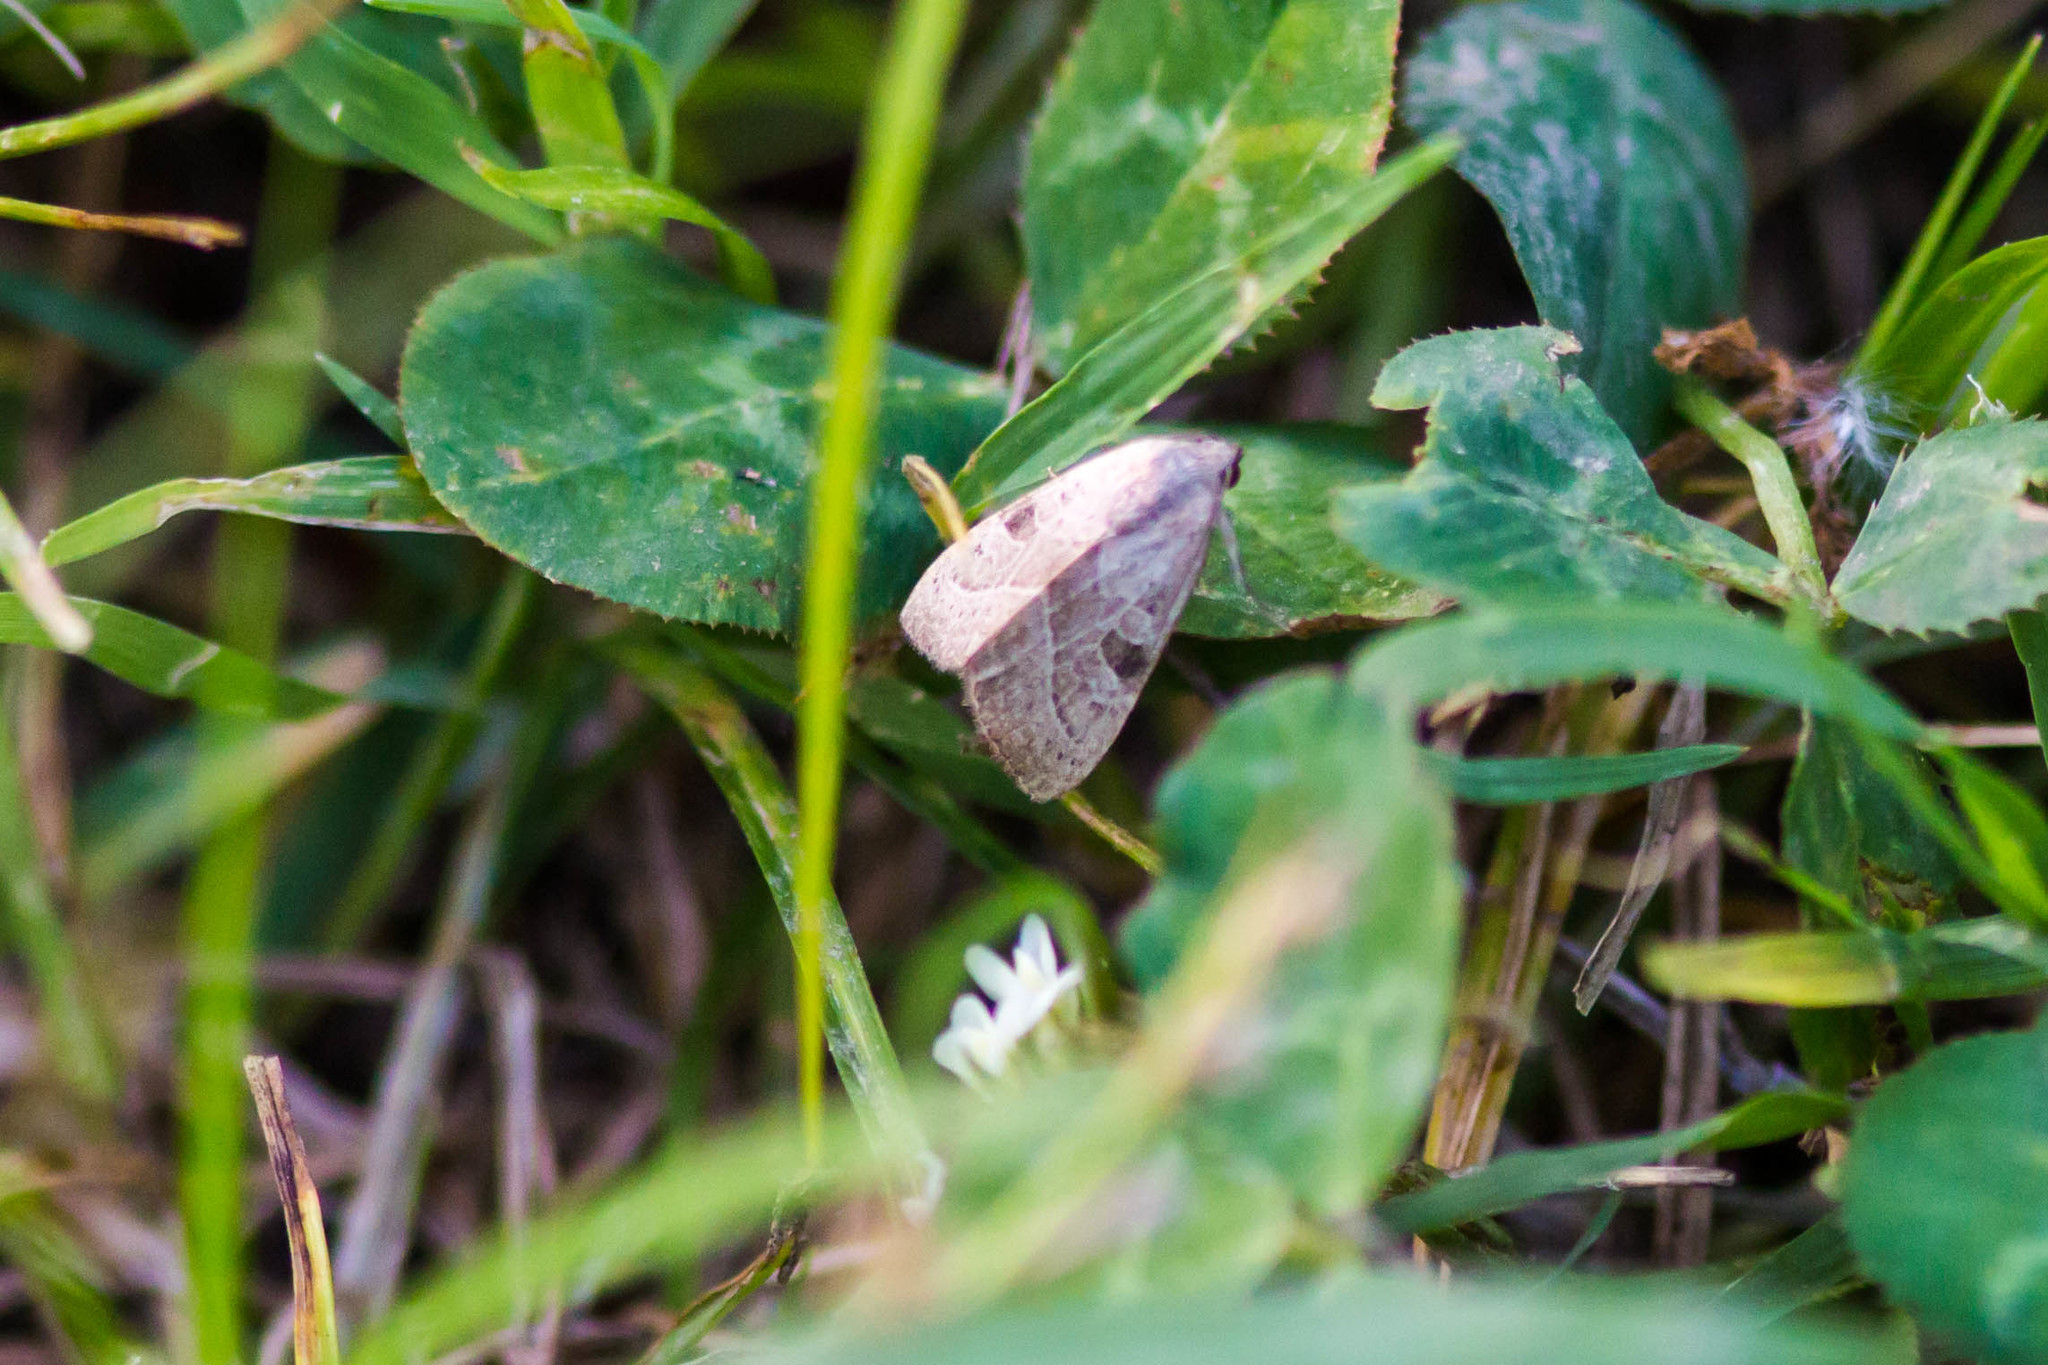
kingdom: Animalia
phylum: Arthropoda
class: Insecta
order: Lepidoptera
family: Noctuidae
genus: Galgula
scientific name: Galgula partita
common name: Wedgeling
